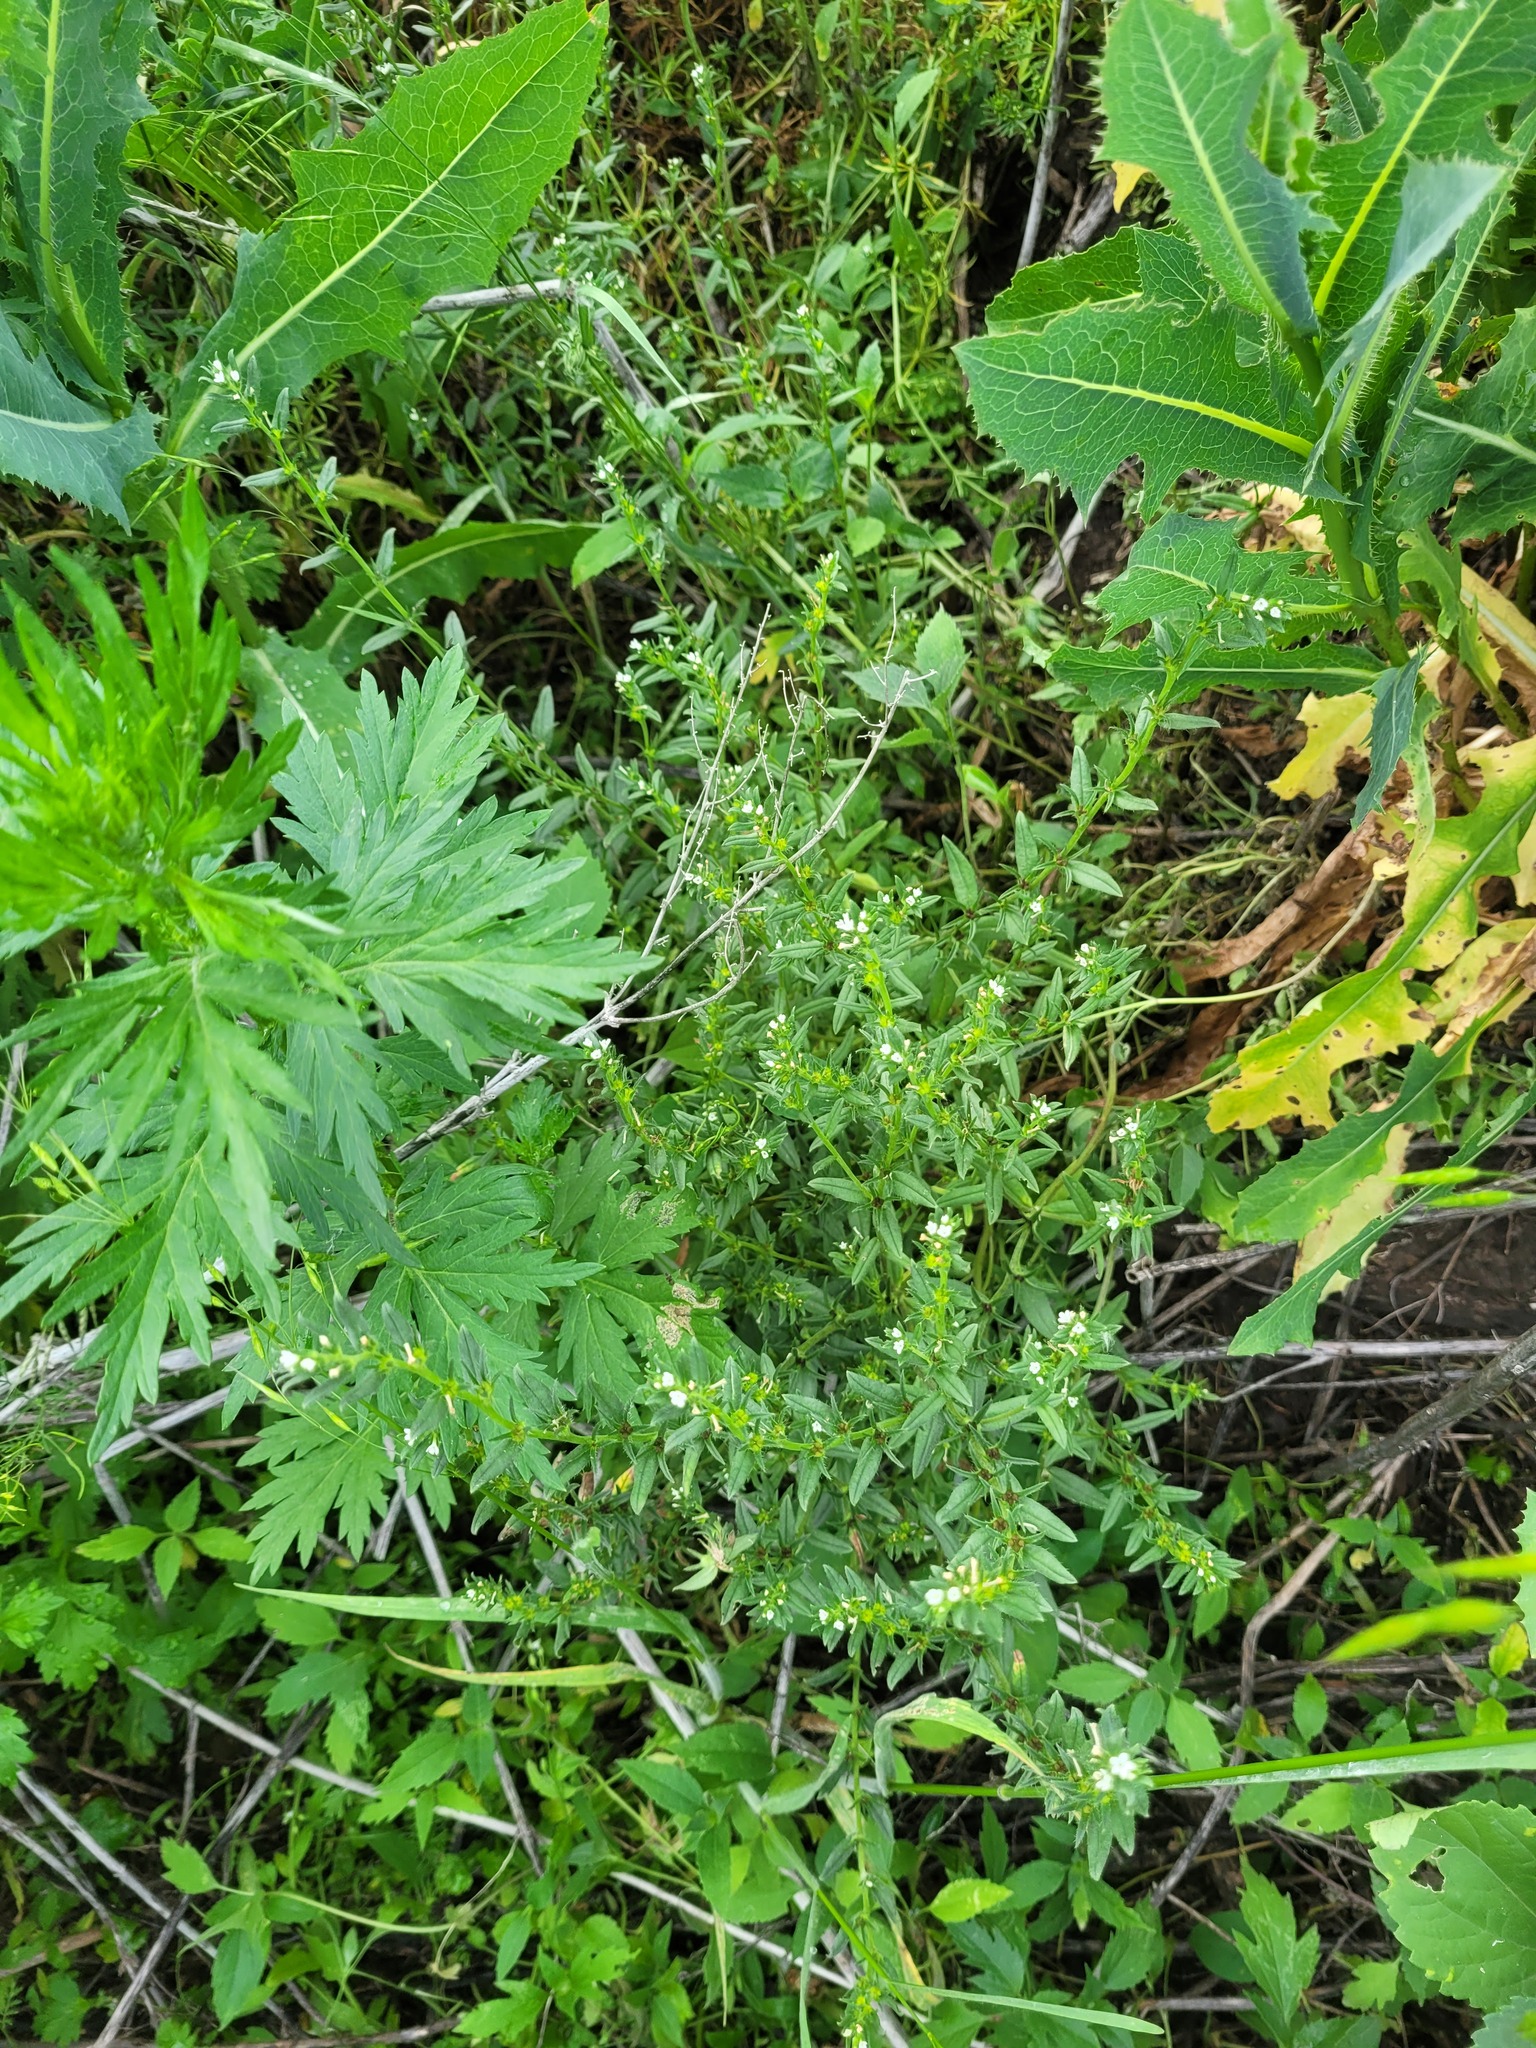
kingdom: Plantae
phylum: Tracheophyta
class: Magnoliopsida
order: Boraginales
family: Boraginaceae
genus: Buglossoides
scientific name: Buglossoides arvensis
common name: Corn gromwell
